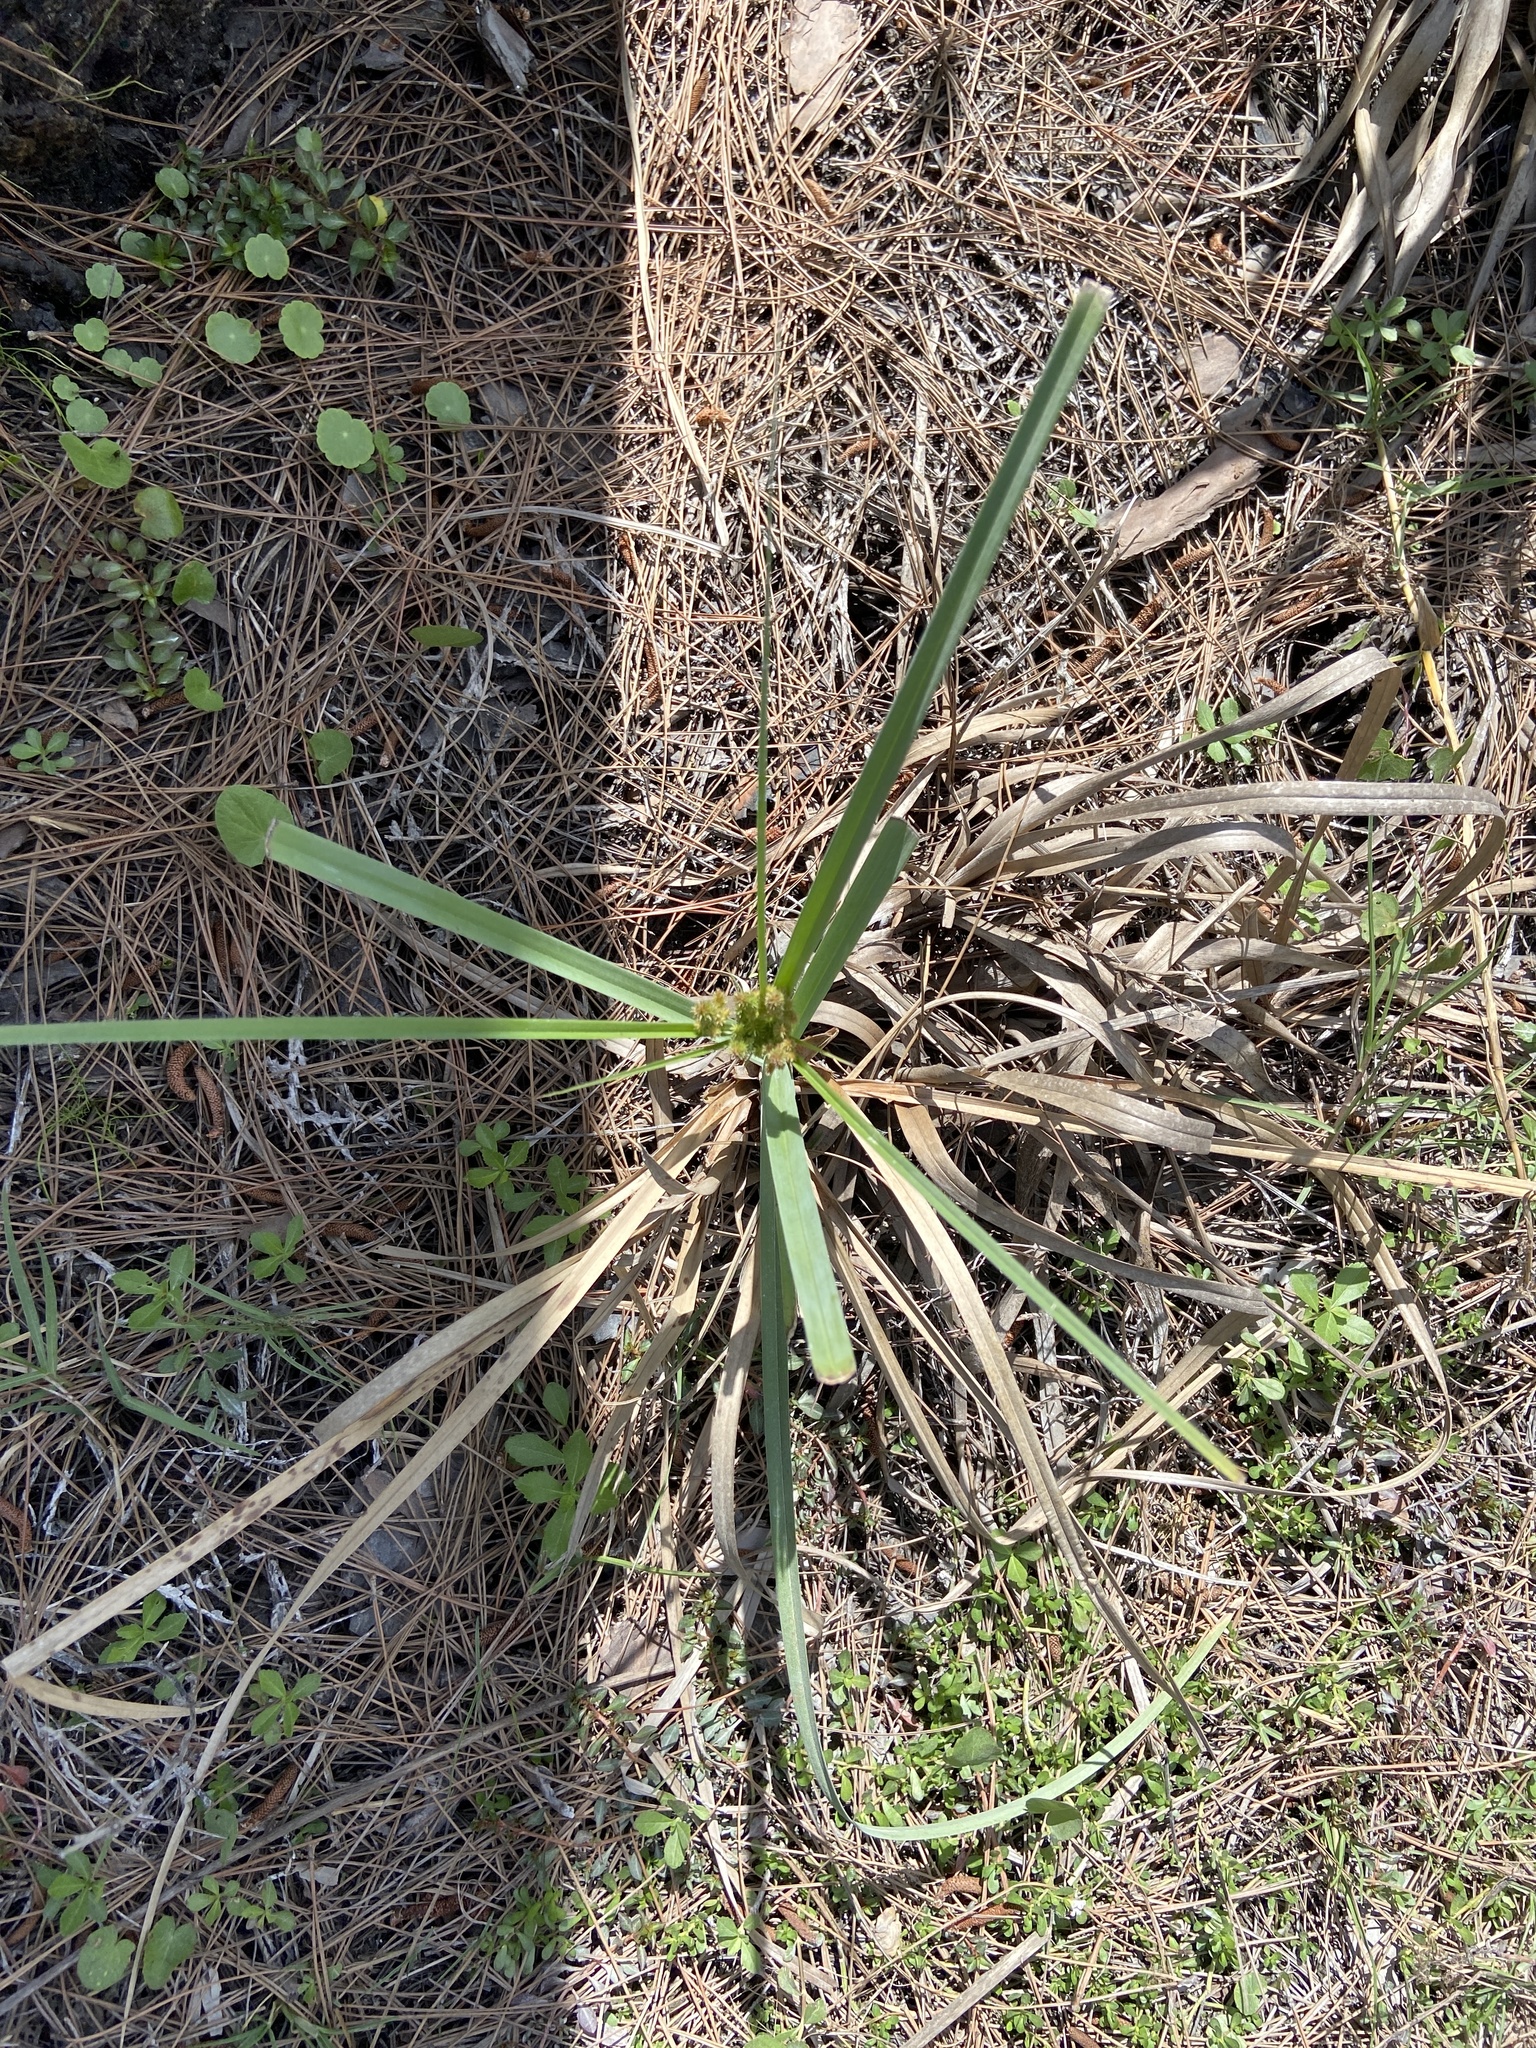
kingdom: Plantae
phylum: Tracheophyta
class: Liliopsida
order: Poales
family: Cyperaceae
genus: Cyperus
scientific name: Cyperus ligularis
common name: Swamp flat sedge
